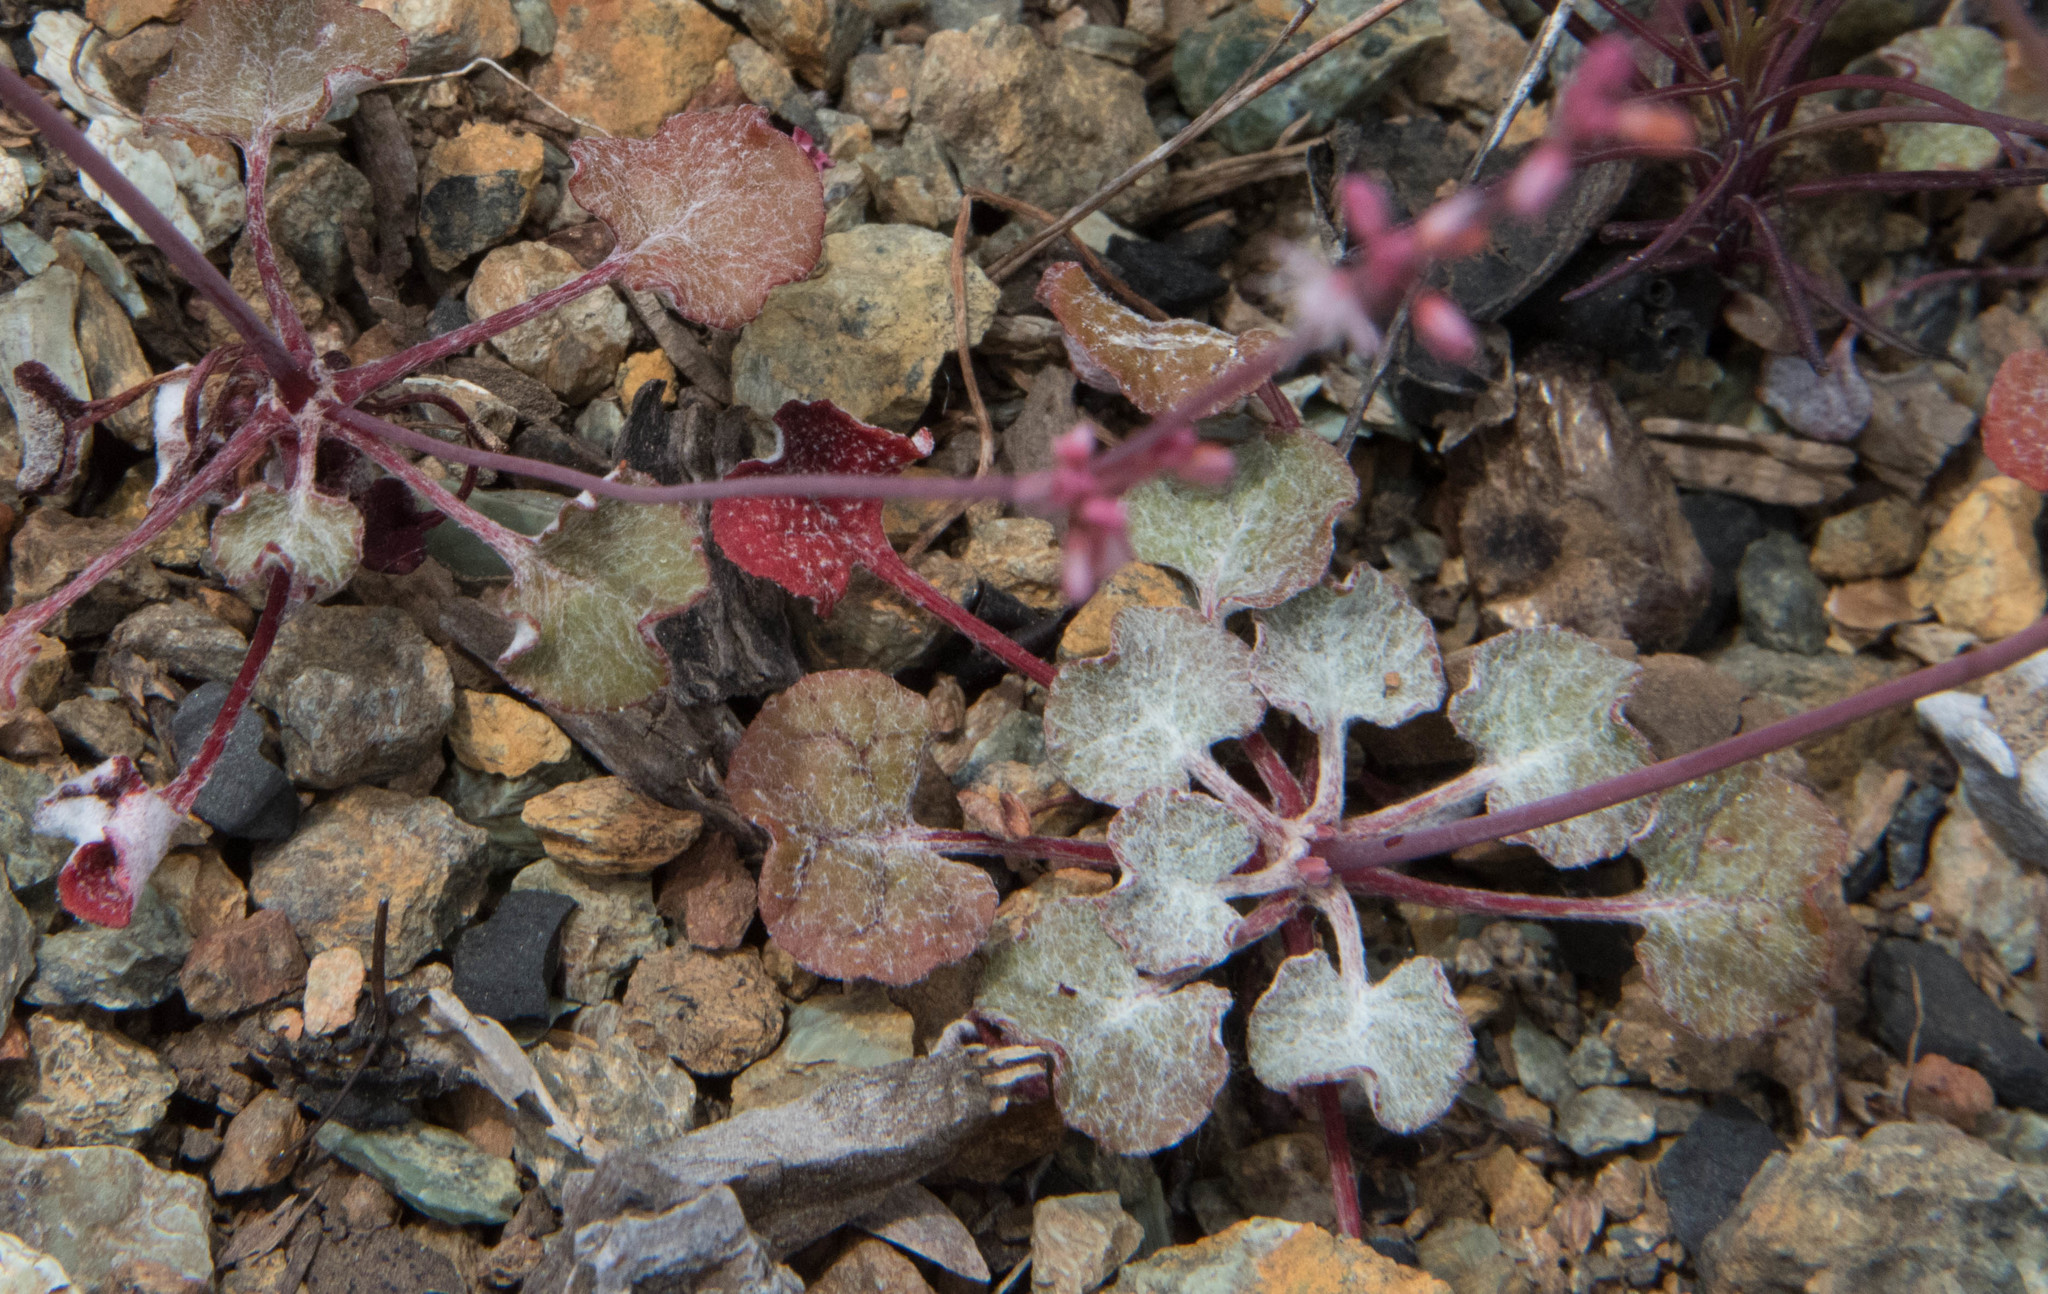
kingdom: Plantae
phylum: Tracheophyta
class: Magnoliopsida
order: Caryophyllales
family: Polygonaceae
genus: Eriogonum
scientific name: Eriogonum vimineum
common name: Wicker buckwheat
